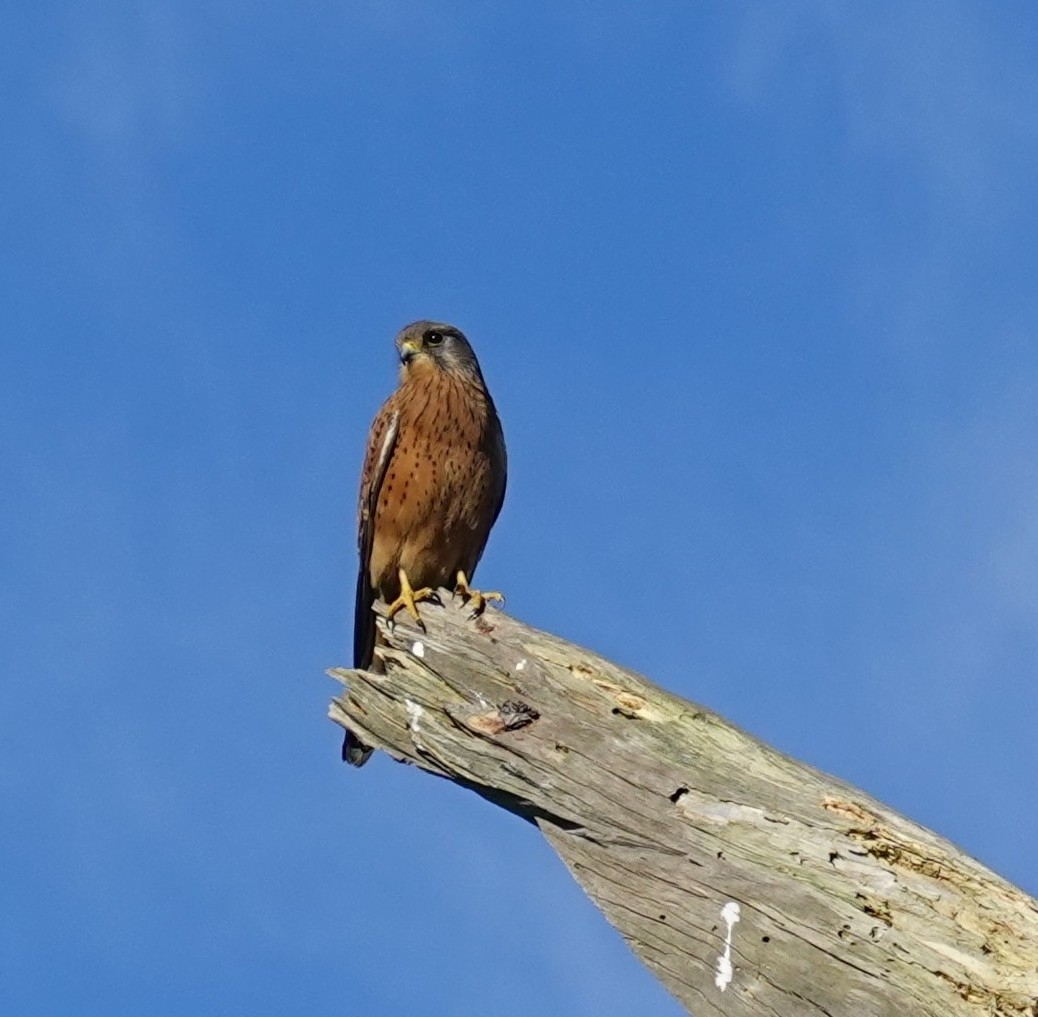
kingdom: Animalia
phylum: Chordata
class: Aves
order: Falconiformes
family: Falconidae
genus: Falco
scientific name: Falco rupicolus
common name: Rock kestrel
